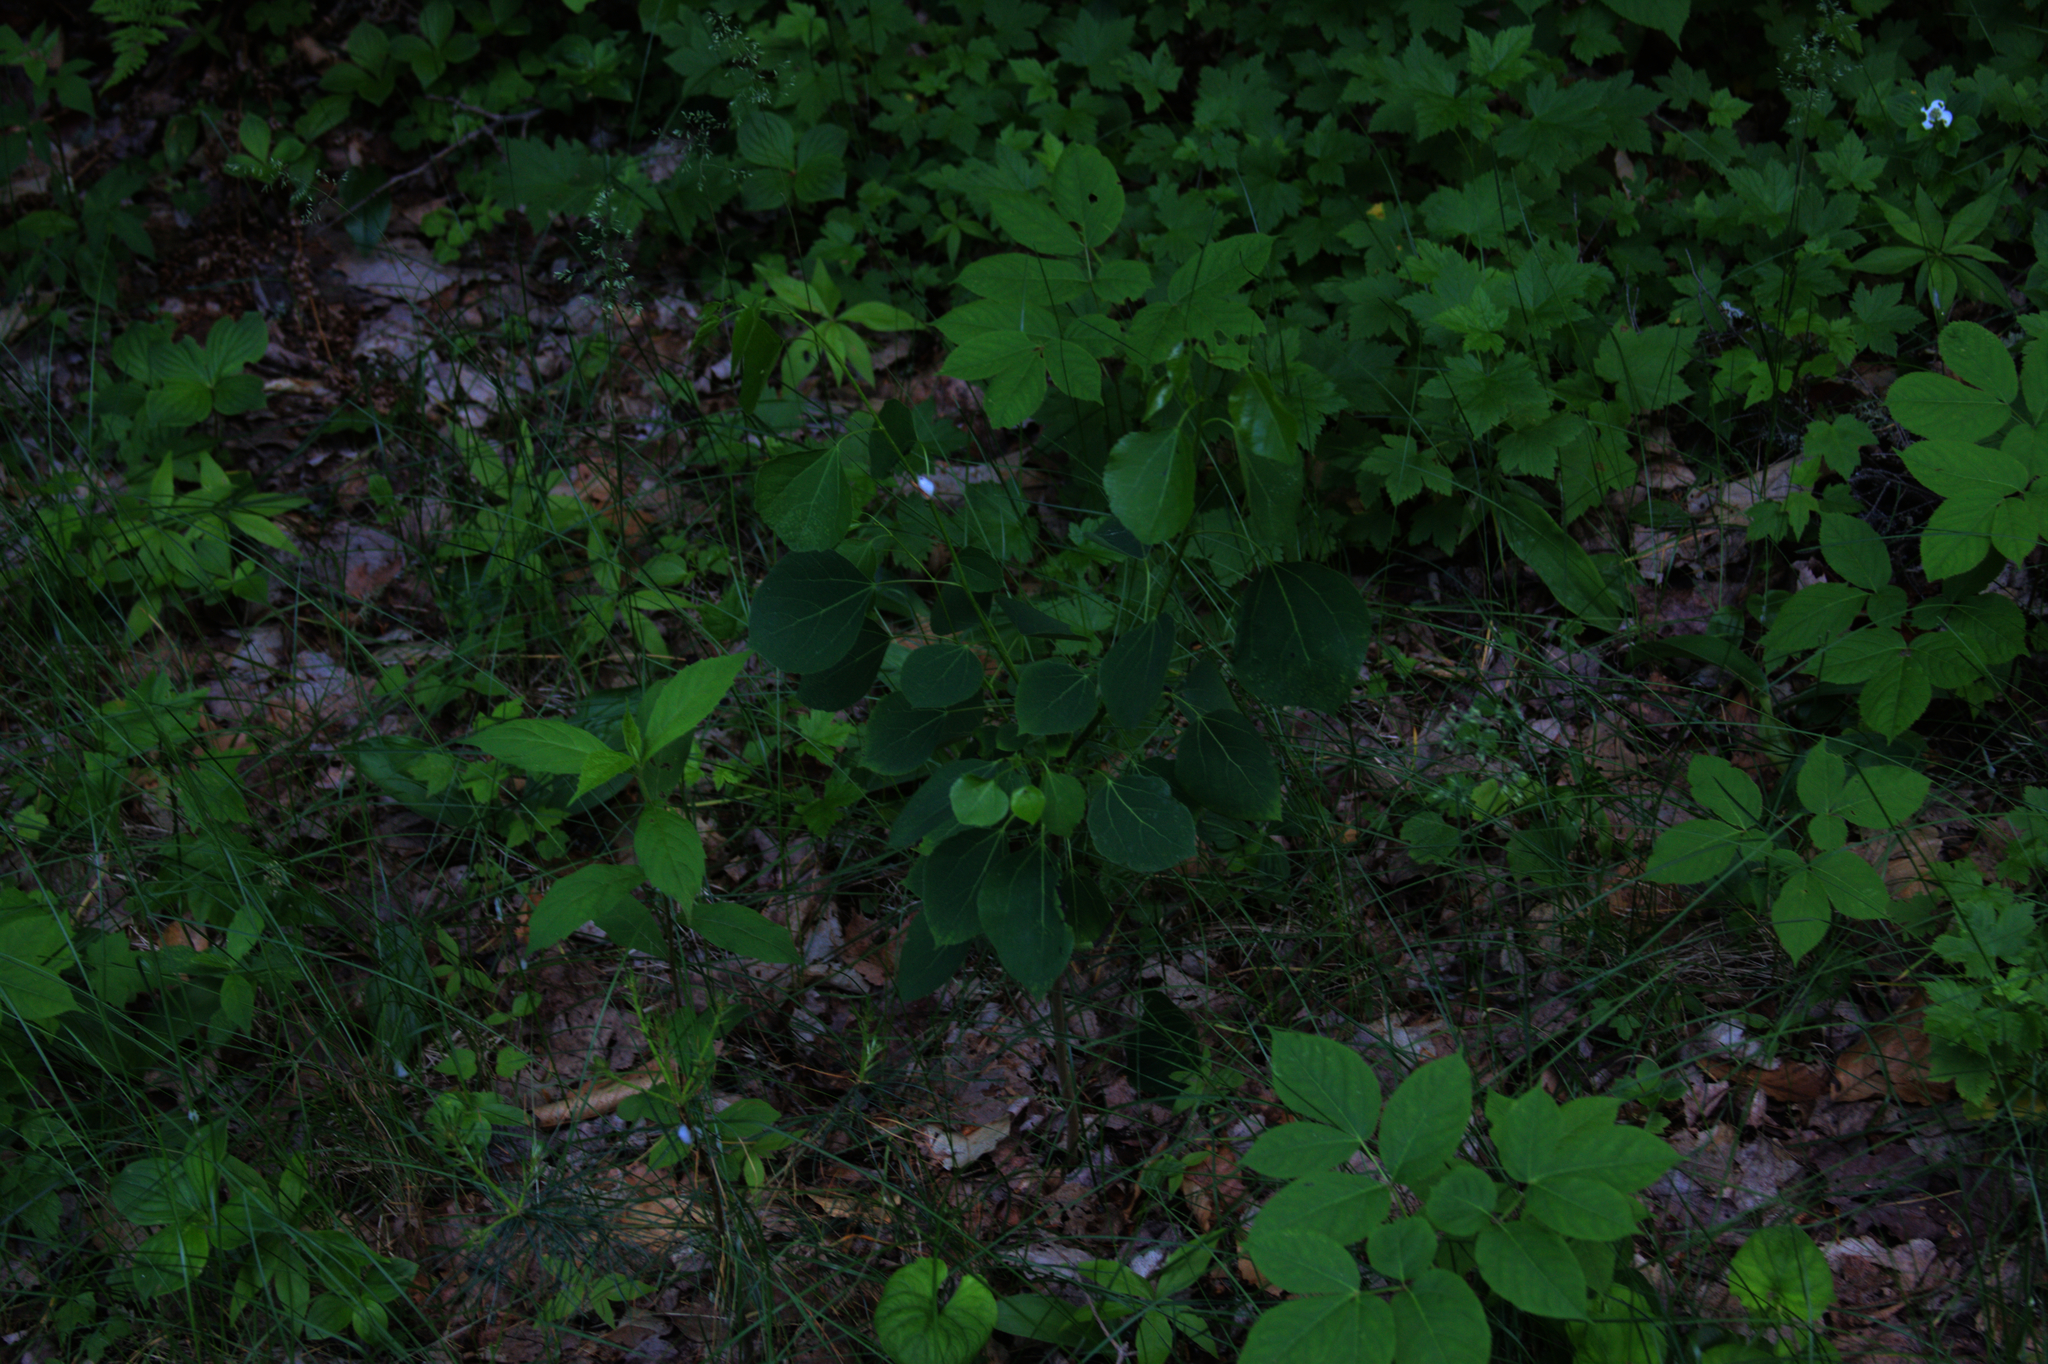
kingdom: Plantae
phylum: Tracheophyta
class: Magnoliopsida
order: Apiales
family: Araliaceae
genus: Aralia
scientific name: Aralia nudicaulis
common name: Wild sarsaparilla
